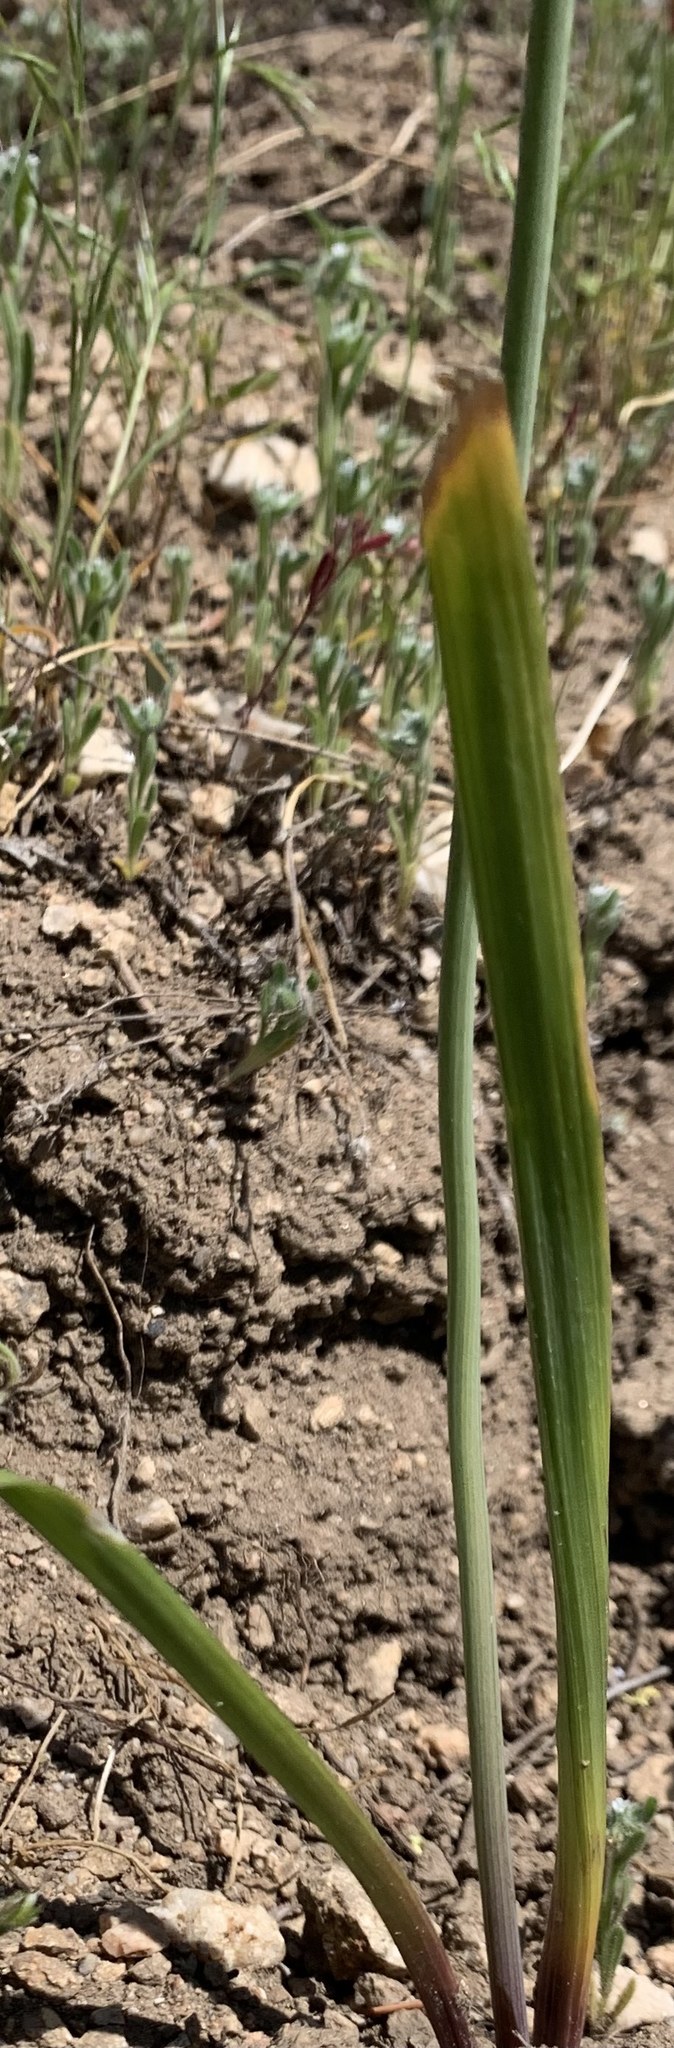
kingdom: Plantae
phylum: Tracheophyta
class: Liliopsida
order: Asparagales
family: Asparagaceae
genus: Triteleia
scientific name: Triteleia grandiflora
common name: Wild hyacinth
